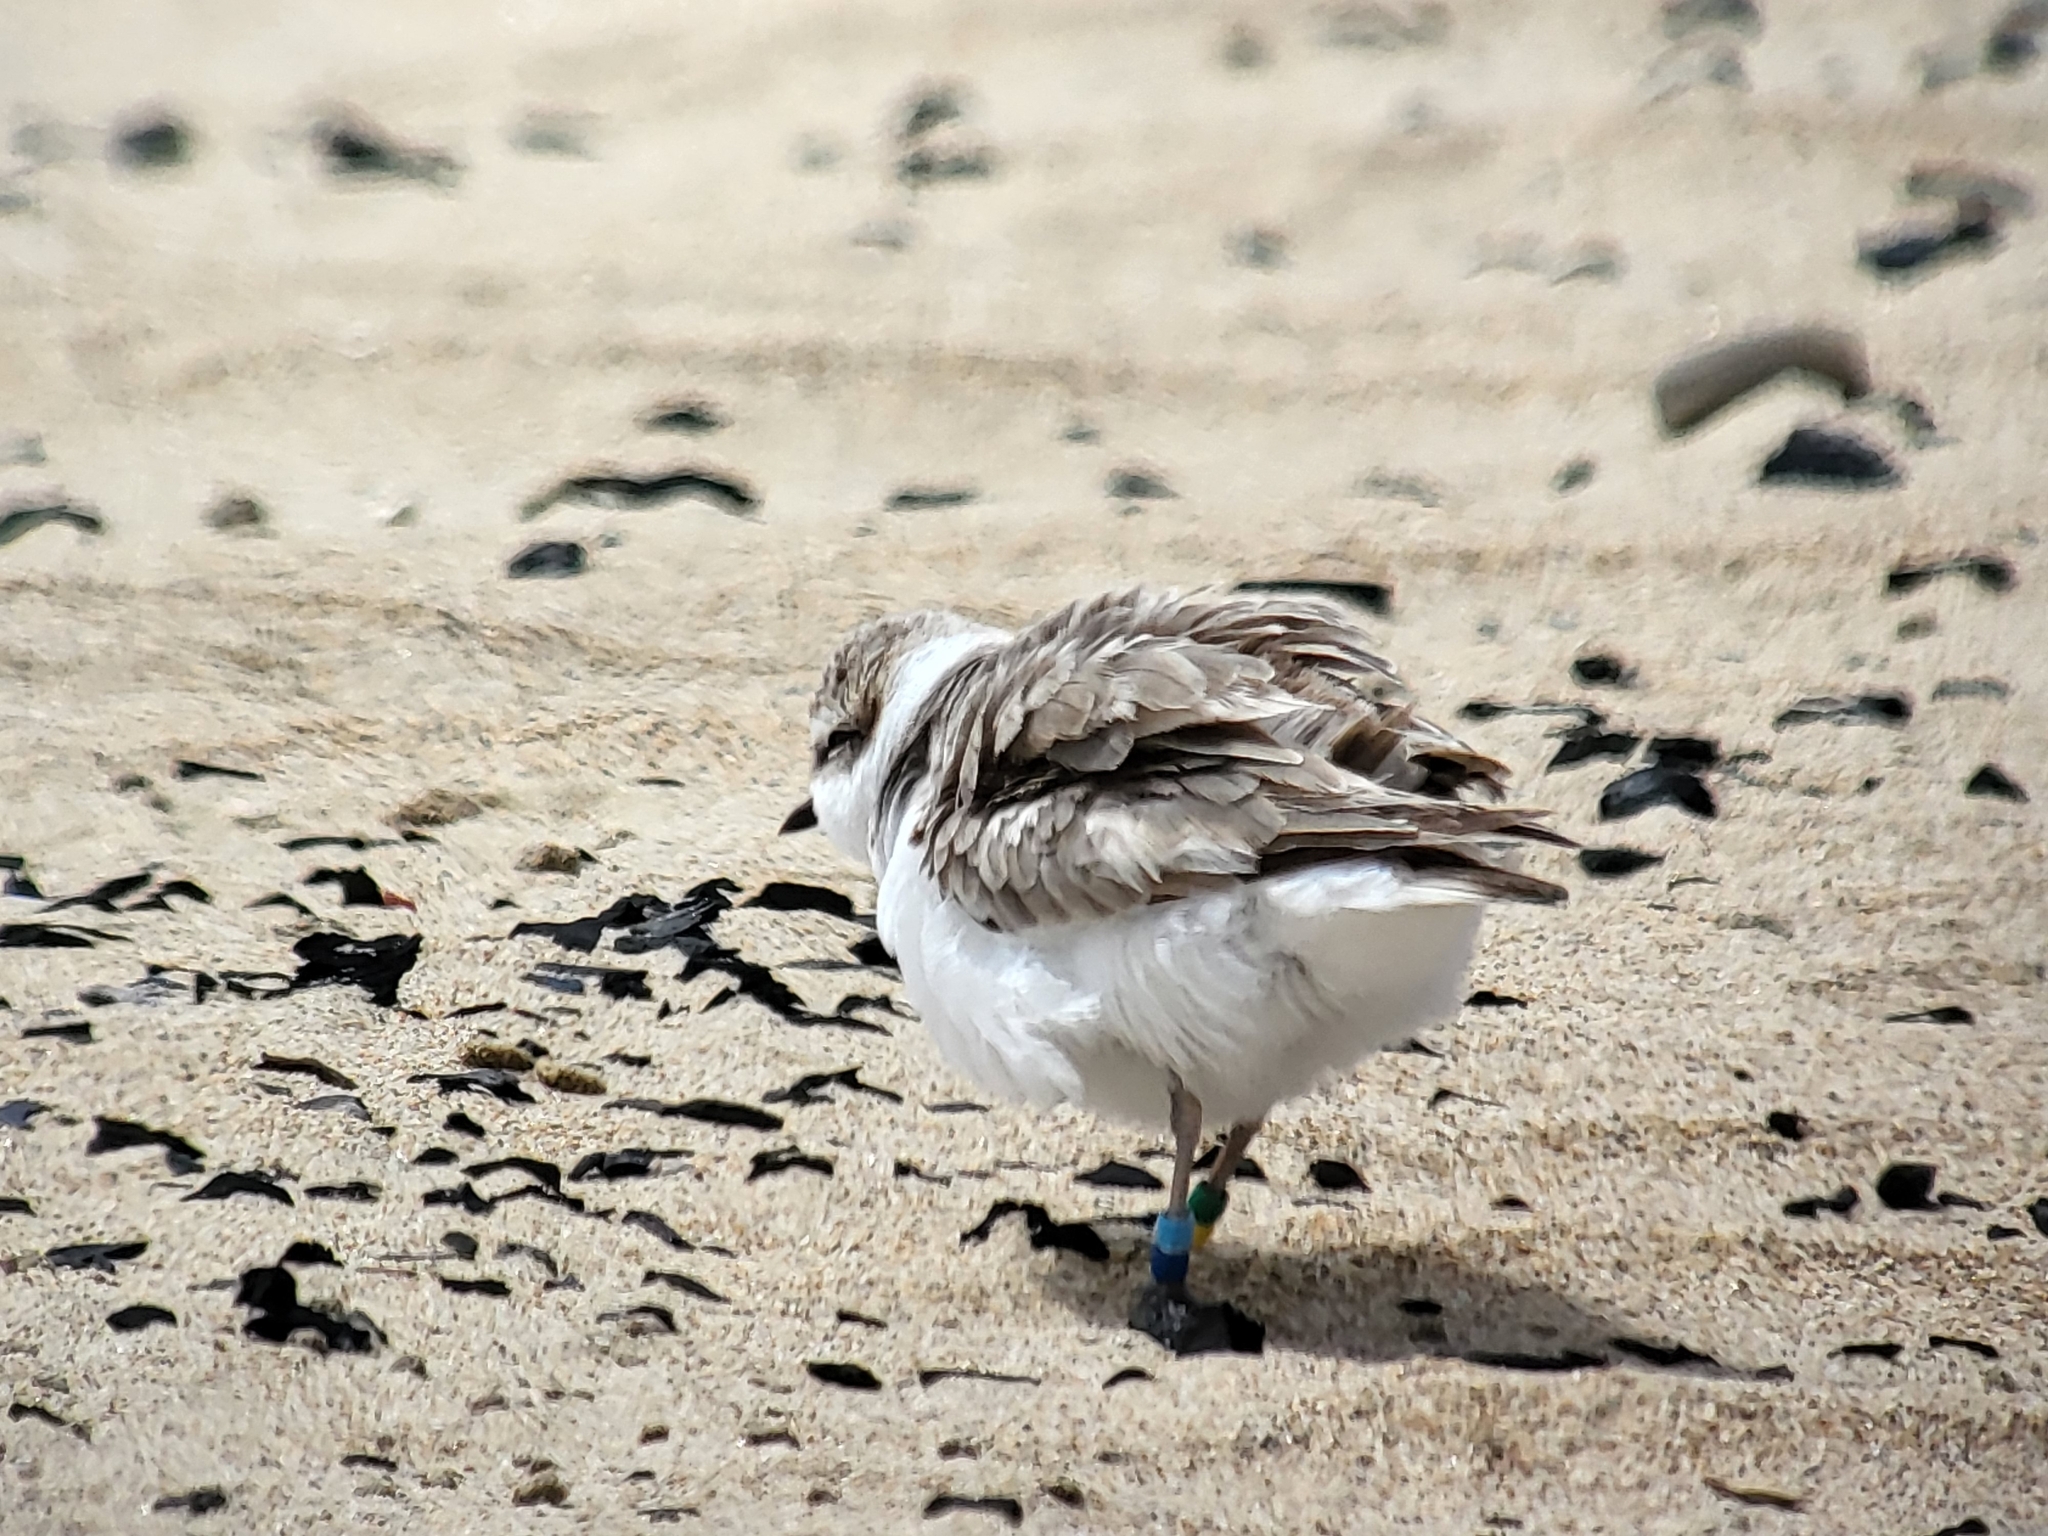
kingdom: Animalia
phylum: Chordata
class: Aves
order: Charadriiformes
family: Charadriidae
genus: Anarhynchus
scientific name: Anarhynchus
